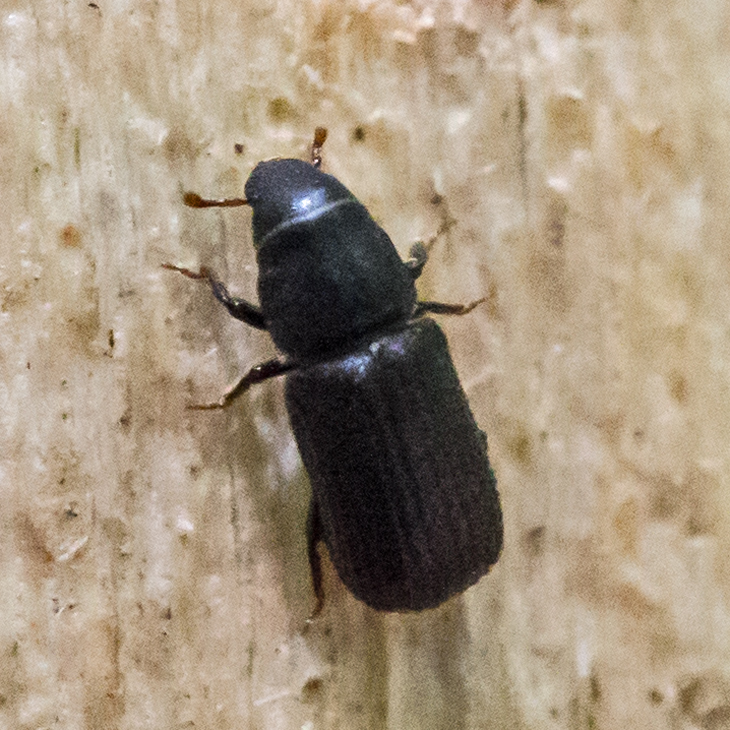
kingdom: Animalia
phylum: Arthropoda
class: Insecta
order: Coleoptera
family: Curculionidae
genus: Stenoscelis
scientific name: Stenoscelis brevis
